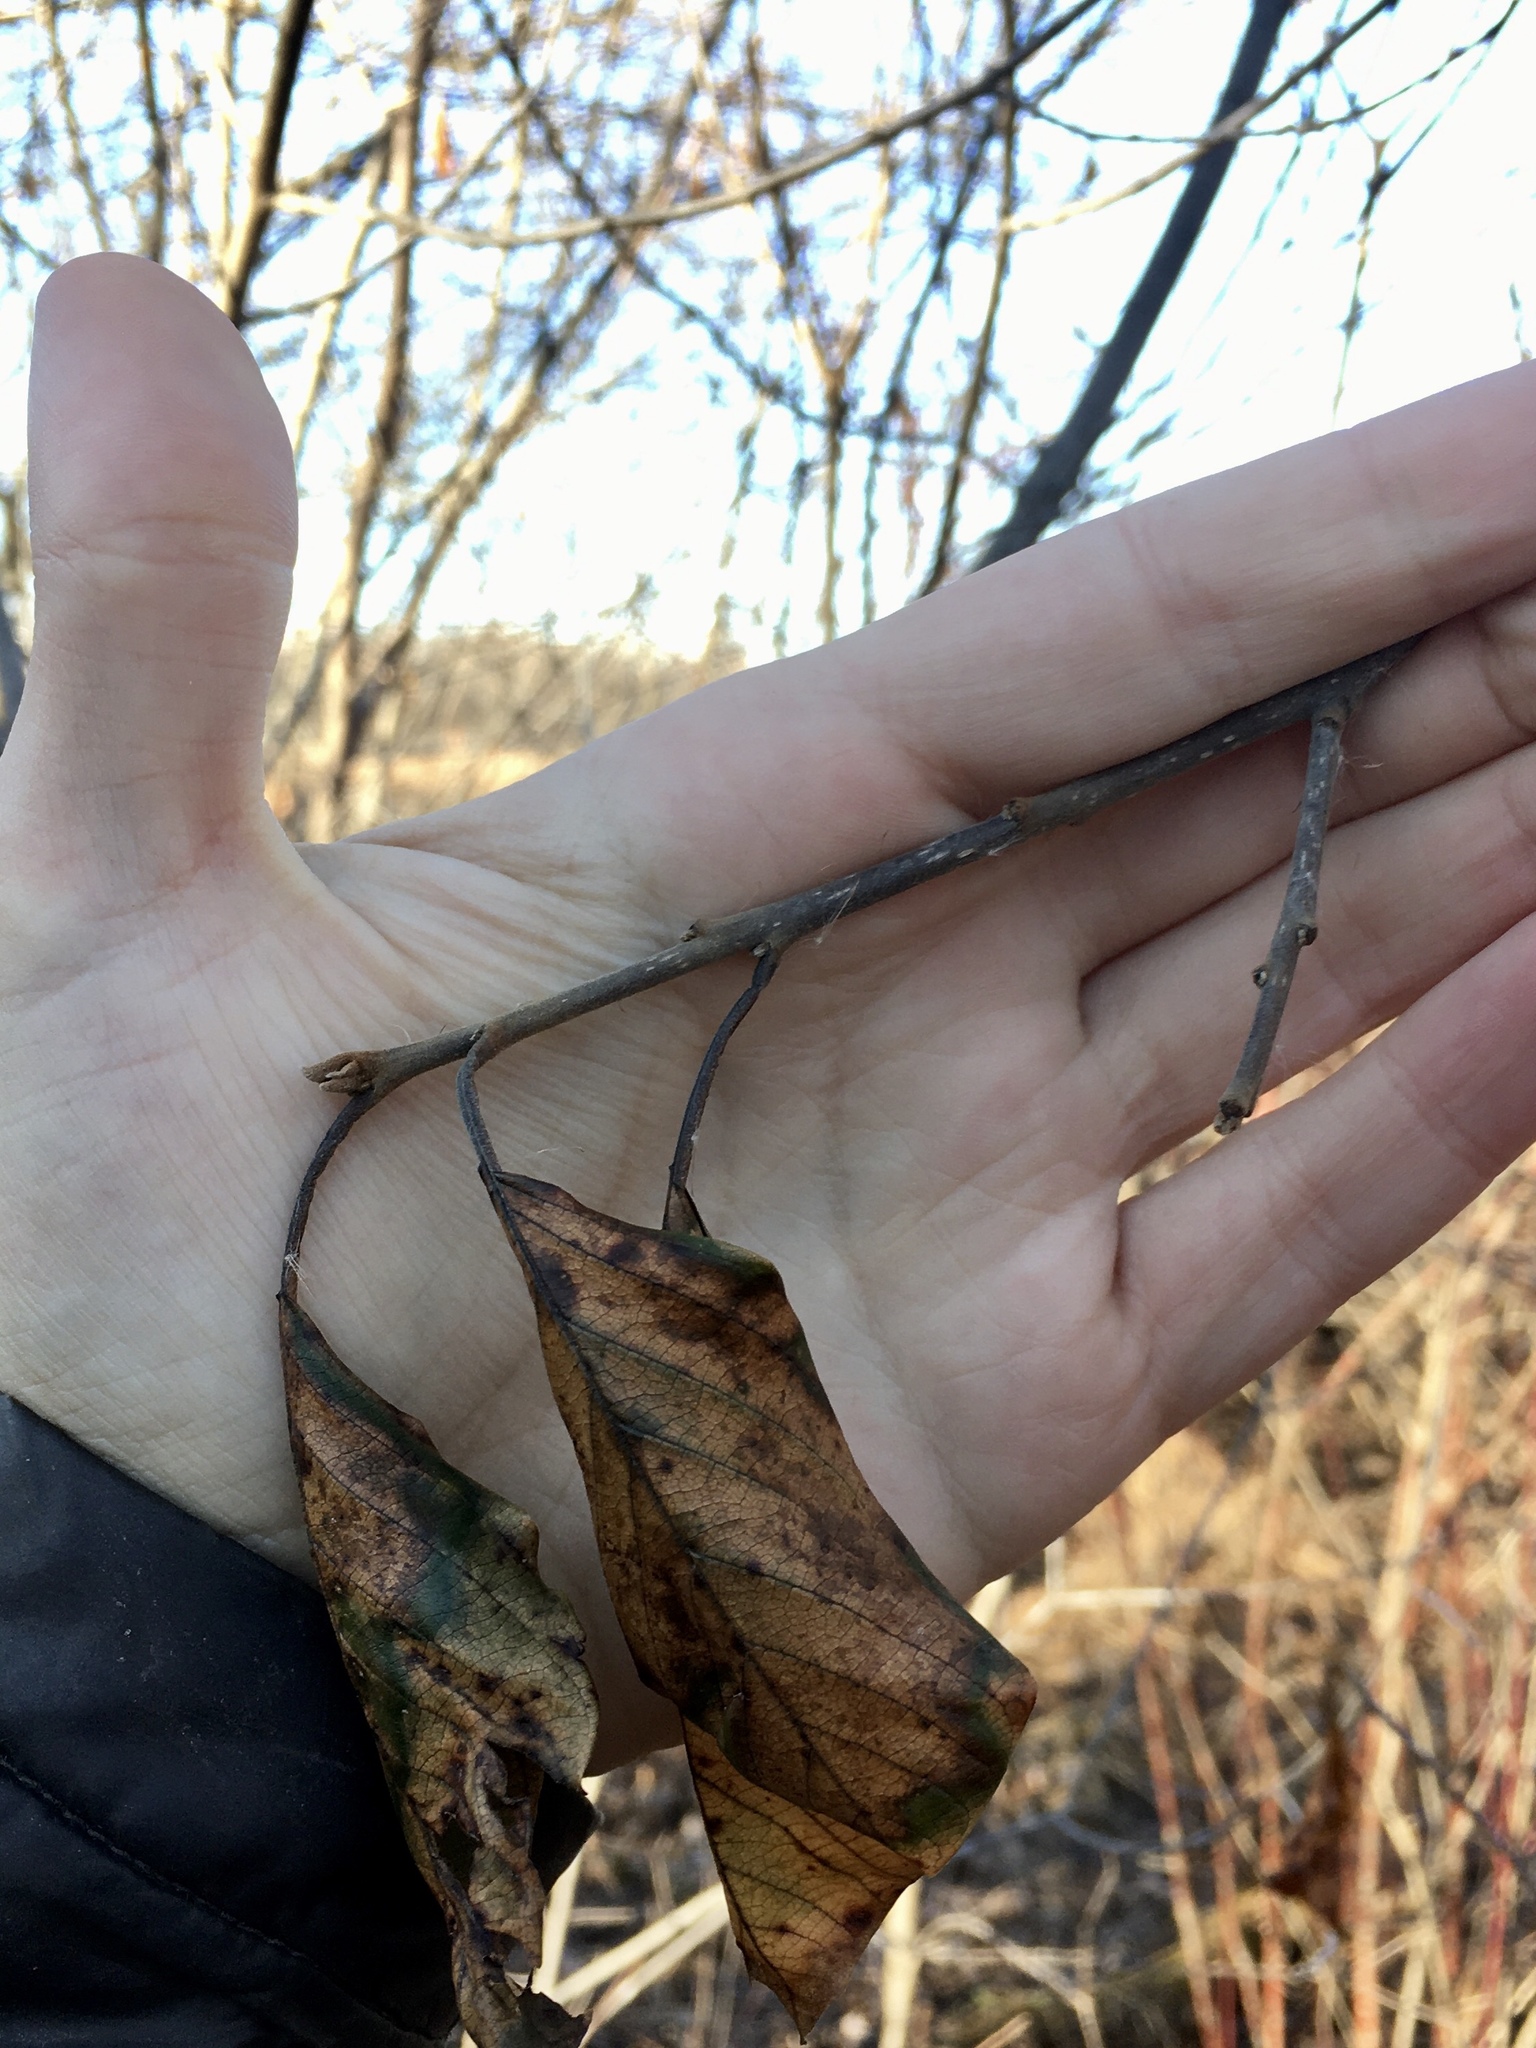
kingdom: Plantae
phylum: Tracheophyta
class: Magnoliopsida
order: Rosales
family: Rhamnaceae
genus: Frangula
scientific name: Frangula alnus
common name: Alder buckthorn
